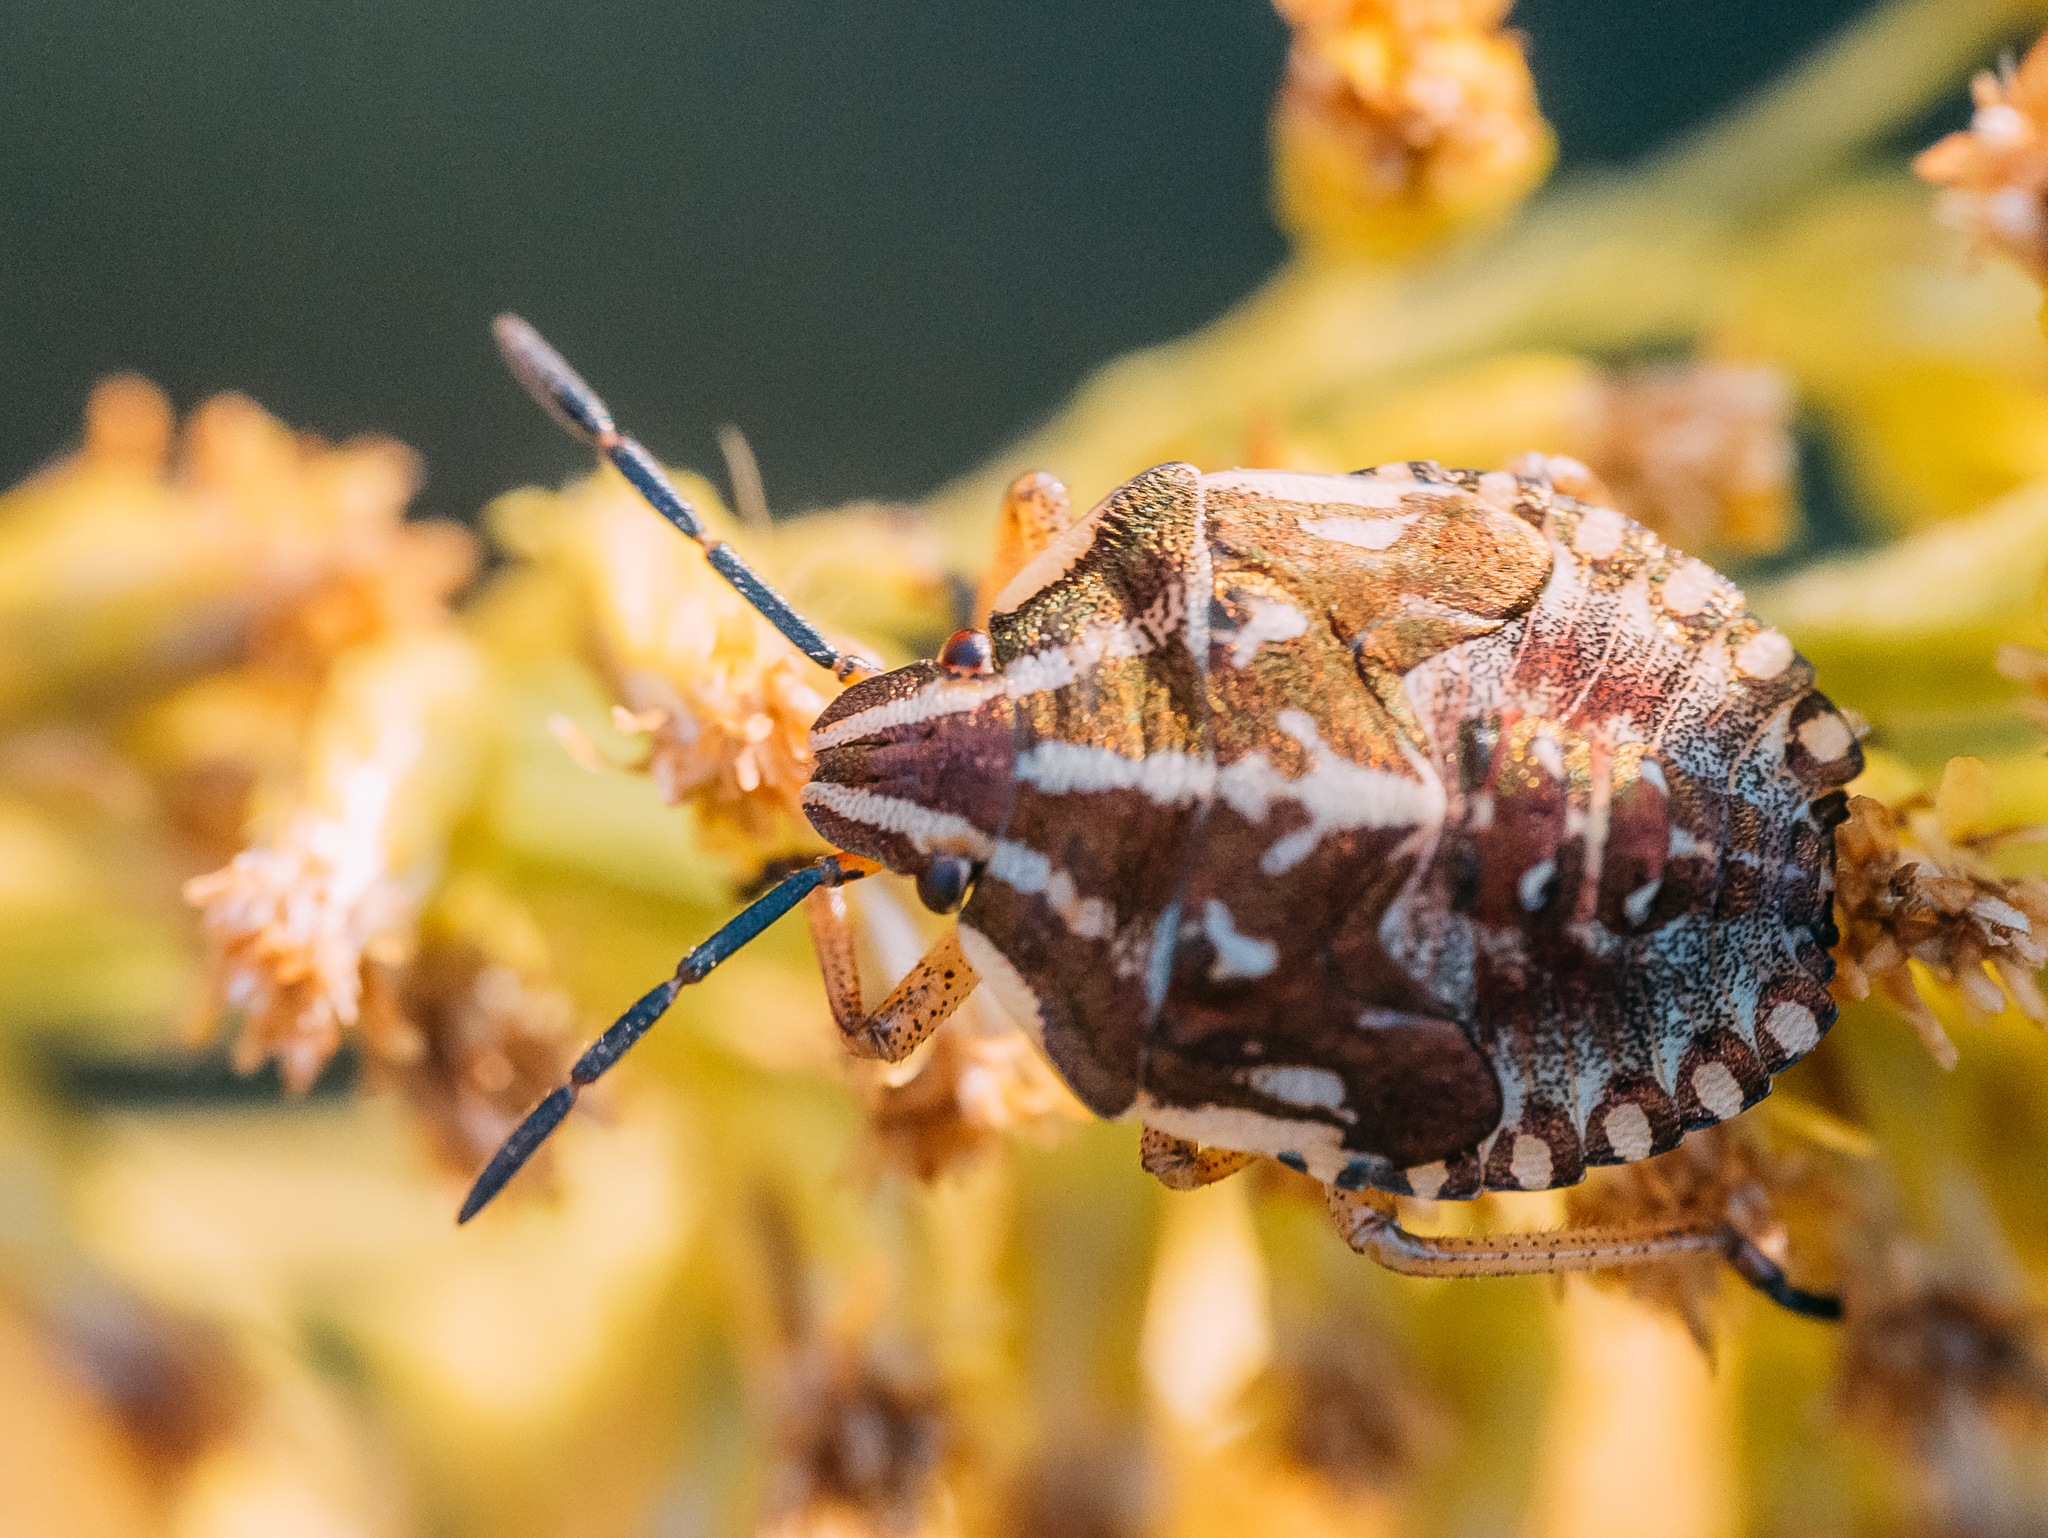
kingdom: Animalia
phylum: Arthropoda
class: Insecta
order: Hemiptera
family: Pentatomidae
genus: Carpocoris
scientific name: Carpocoris
